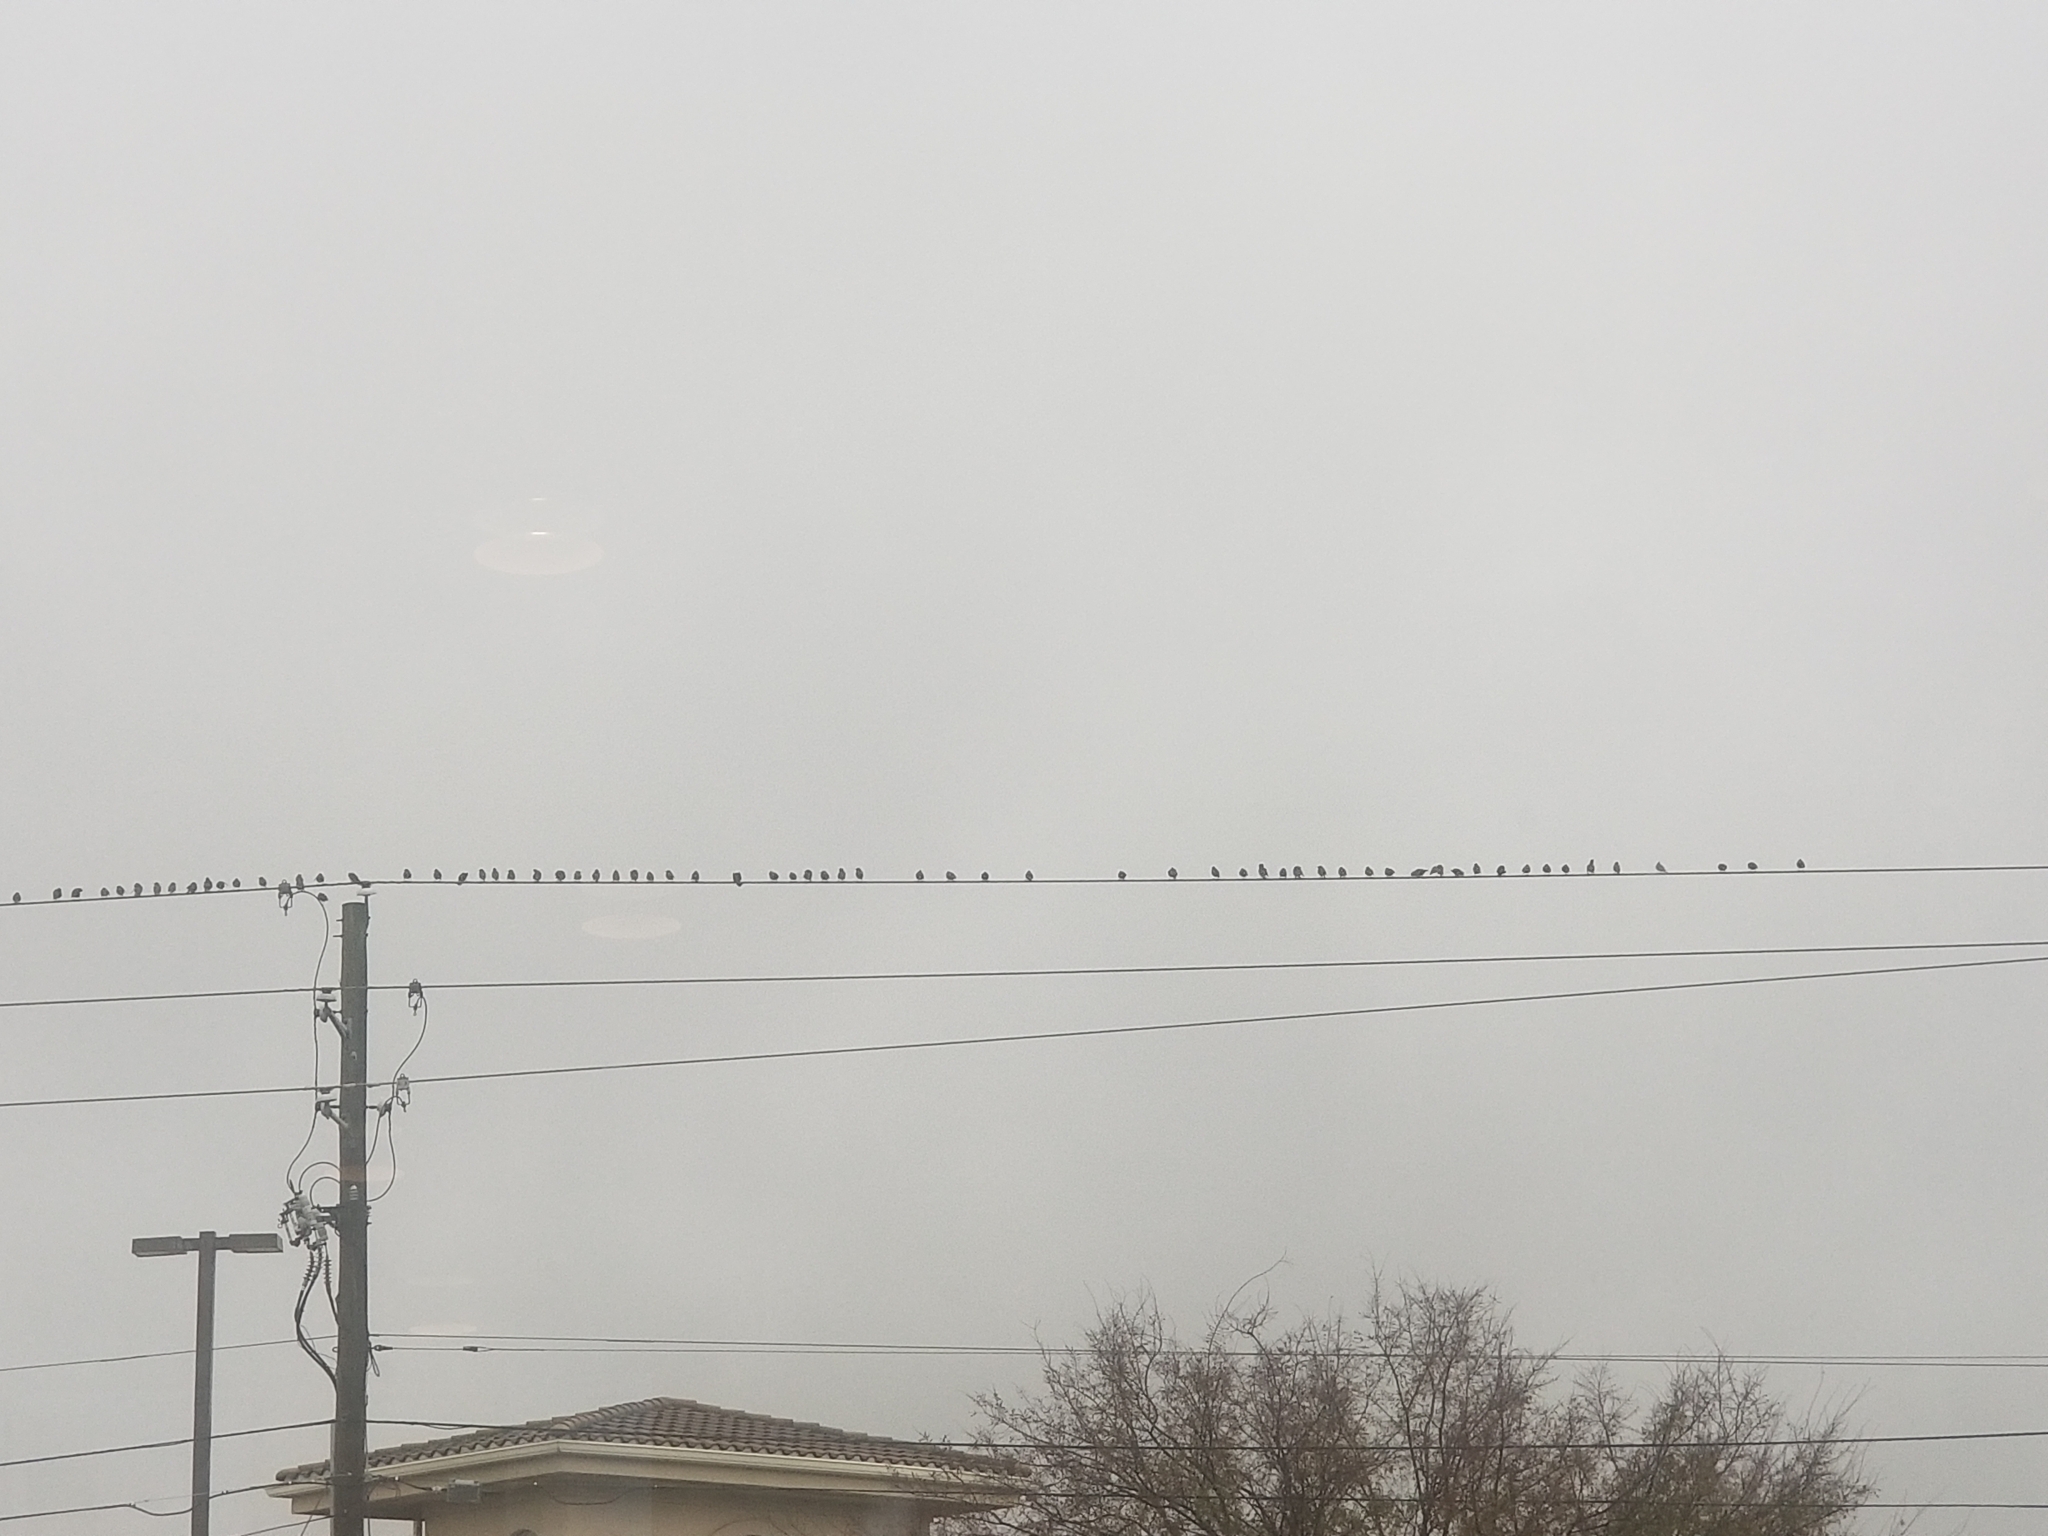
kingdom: Animalia
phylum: Chordata
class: Aves
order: Passeriformes
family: Sturnidae
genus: Sturnus
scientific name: Sturnus vulgaris
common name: Common starling
